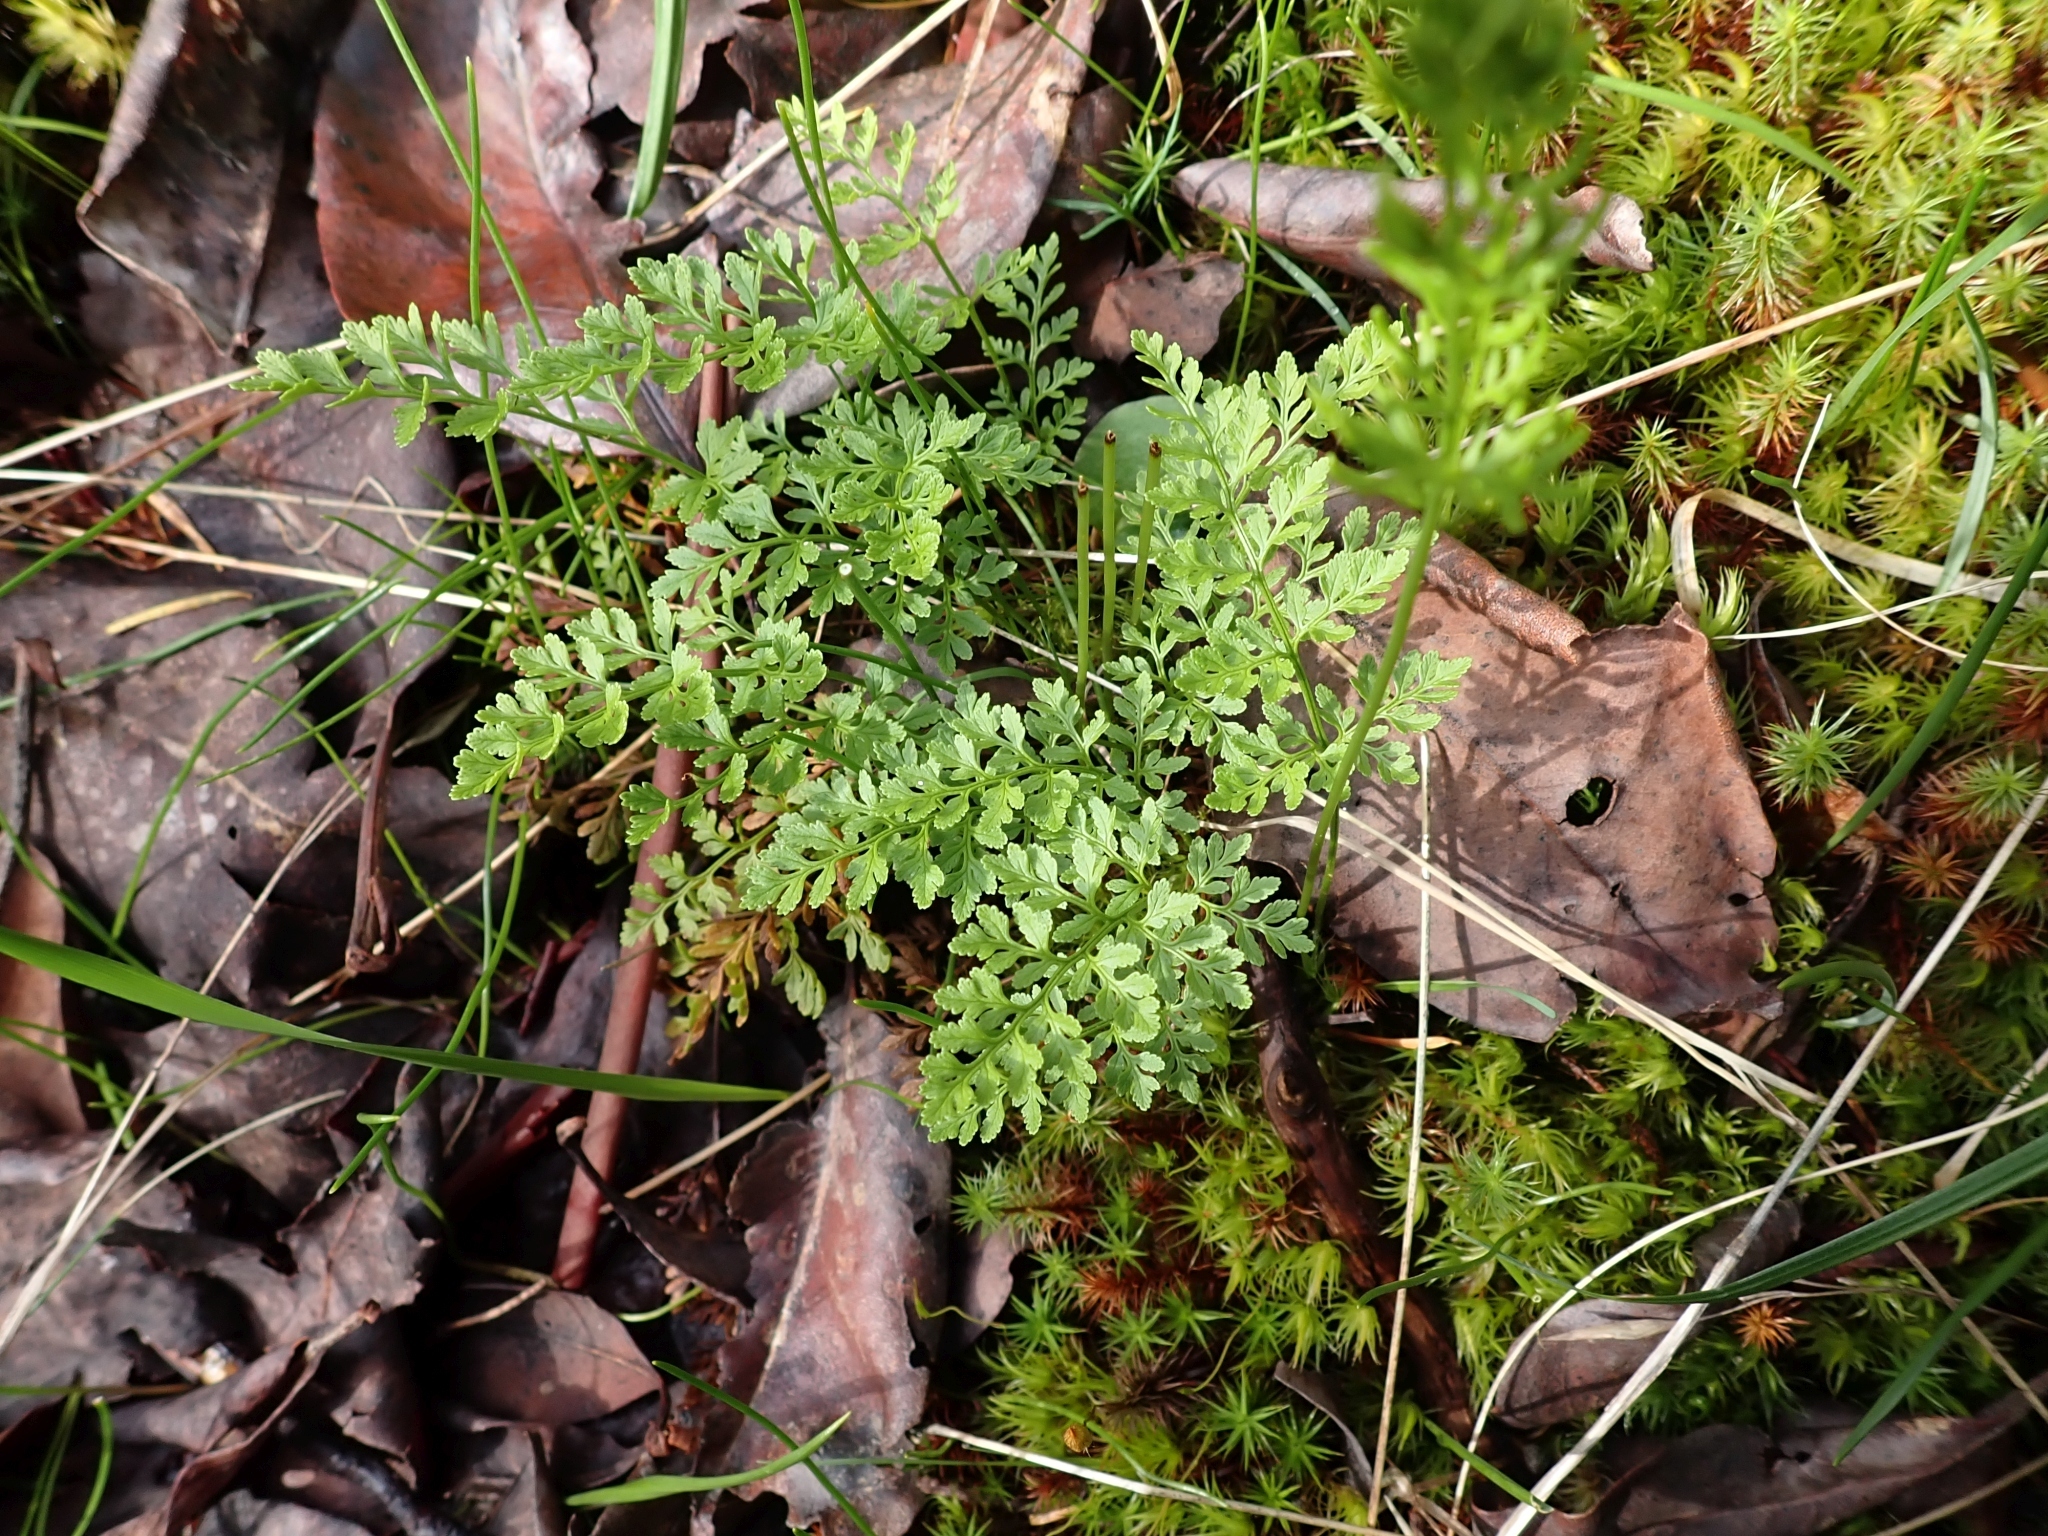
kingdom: Plantae
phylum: Tracheophyta
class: Polypodiopsida
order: Polypodiales
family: Pteridaceae
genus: Cryptogramma
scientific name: Cryptogramma acrostichoides
